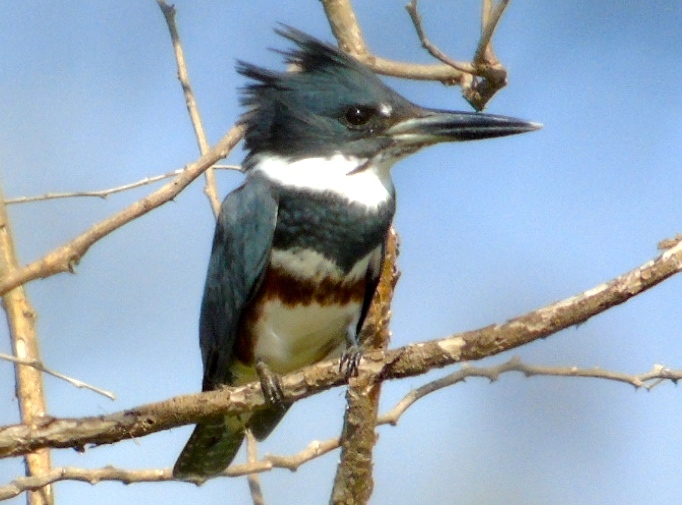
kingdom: Animalia
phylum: Chordata
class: Aves
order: Coraciiformes
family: Alcedinidae
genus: Megaceryle
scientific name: Megaceryle alcyon
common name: Belted kingfisher
